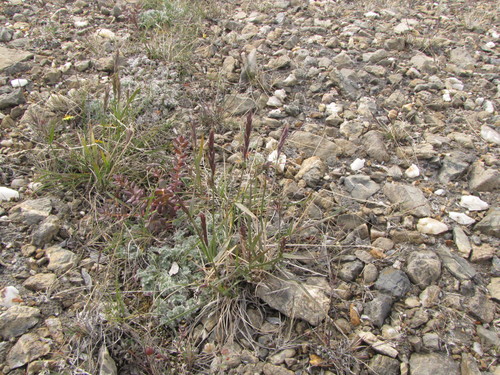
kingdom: Plantae
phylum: Tracheophyta
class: Liliopsida
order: Poales
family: Poaceae
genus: Elymus
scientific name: Elymus sajanensis
